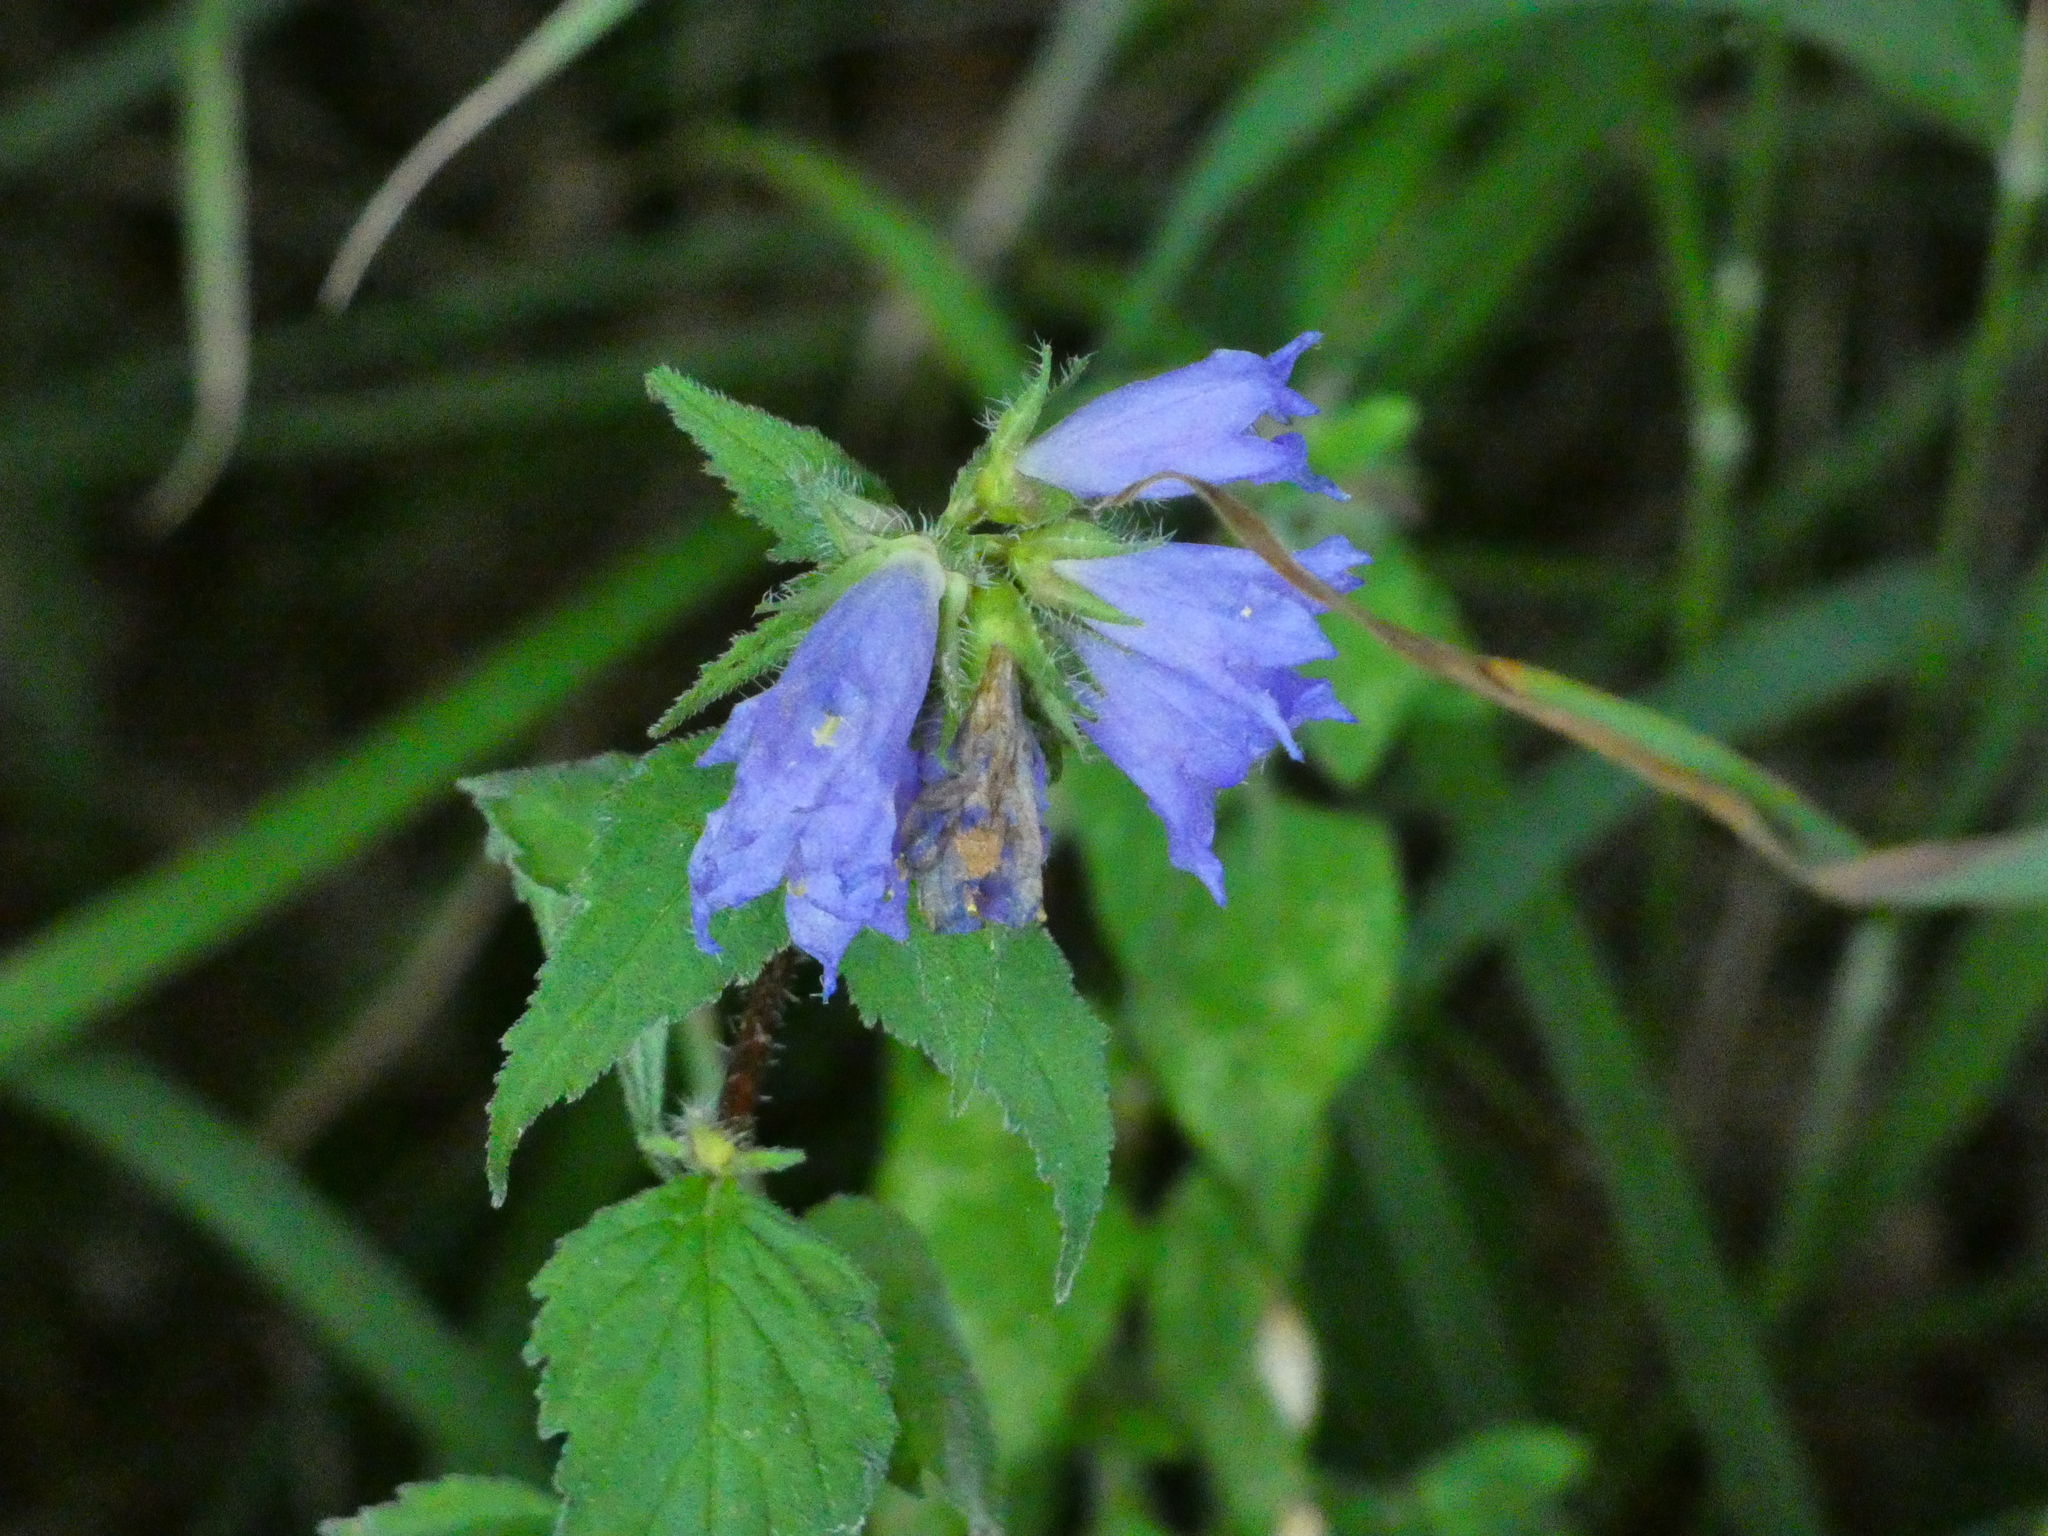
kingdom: Plantae
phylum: Tracheophyta
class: Magnoliopsida
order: Asterales
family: Campanulaceae
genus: Campanula
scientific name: Campanula trachelium
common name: Nettle-leaved bellflower
